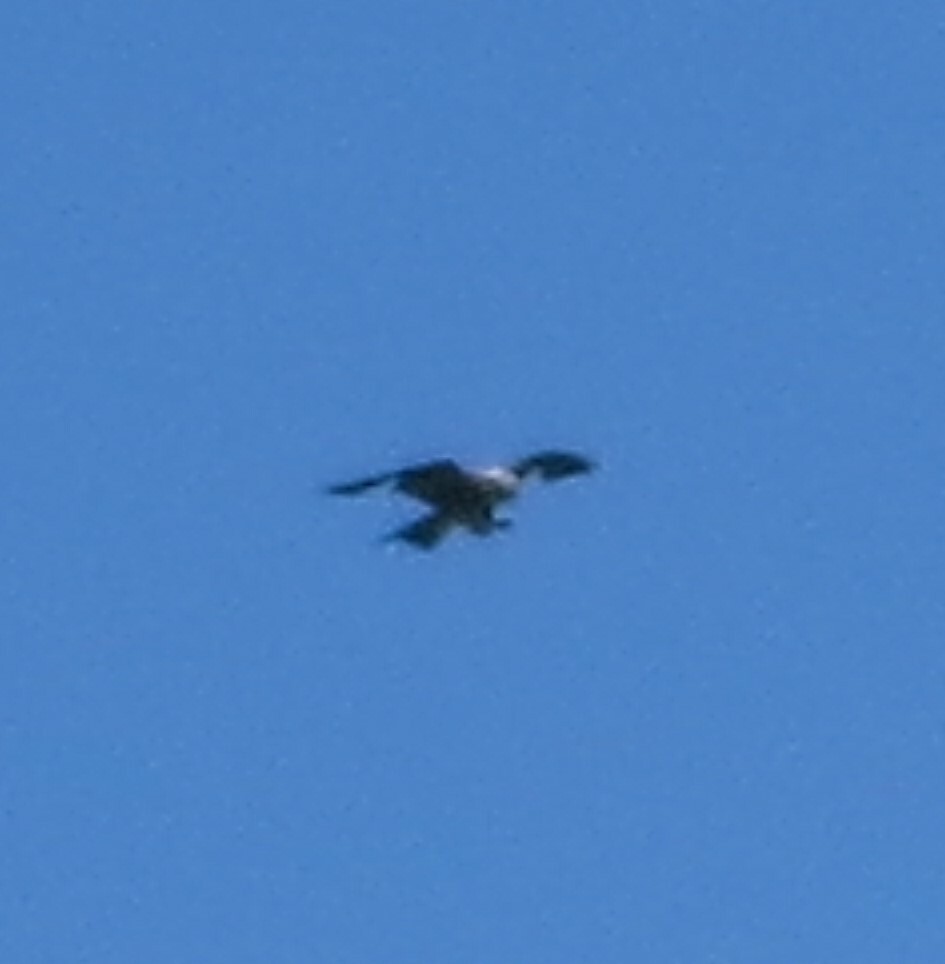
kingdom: Animalia
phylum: Chordata
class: Aves
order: Accipitriformes
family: Accipitridae
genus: Ictinia
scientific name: Ictinia mississippiensis
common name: Mississippi kite
